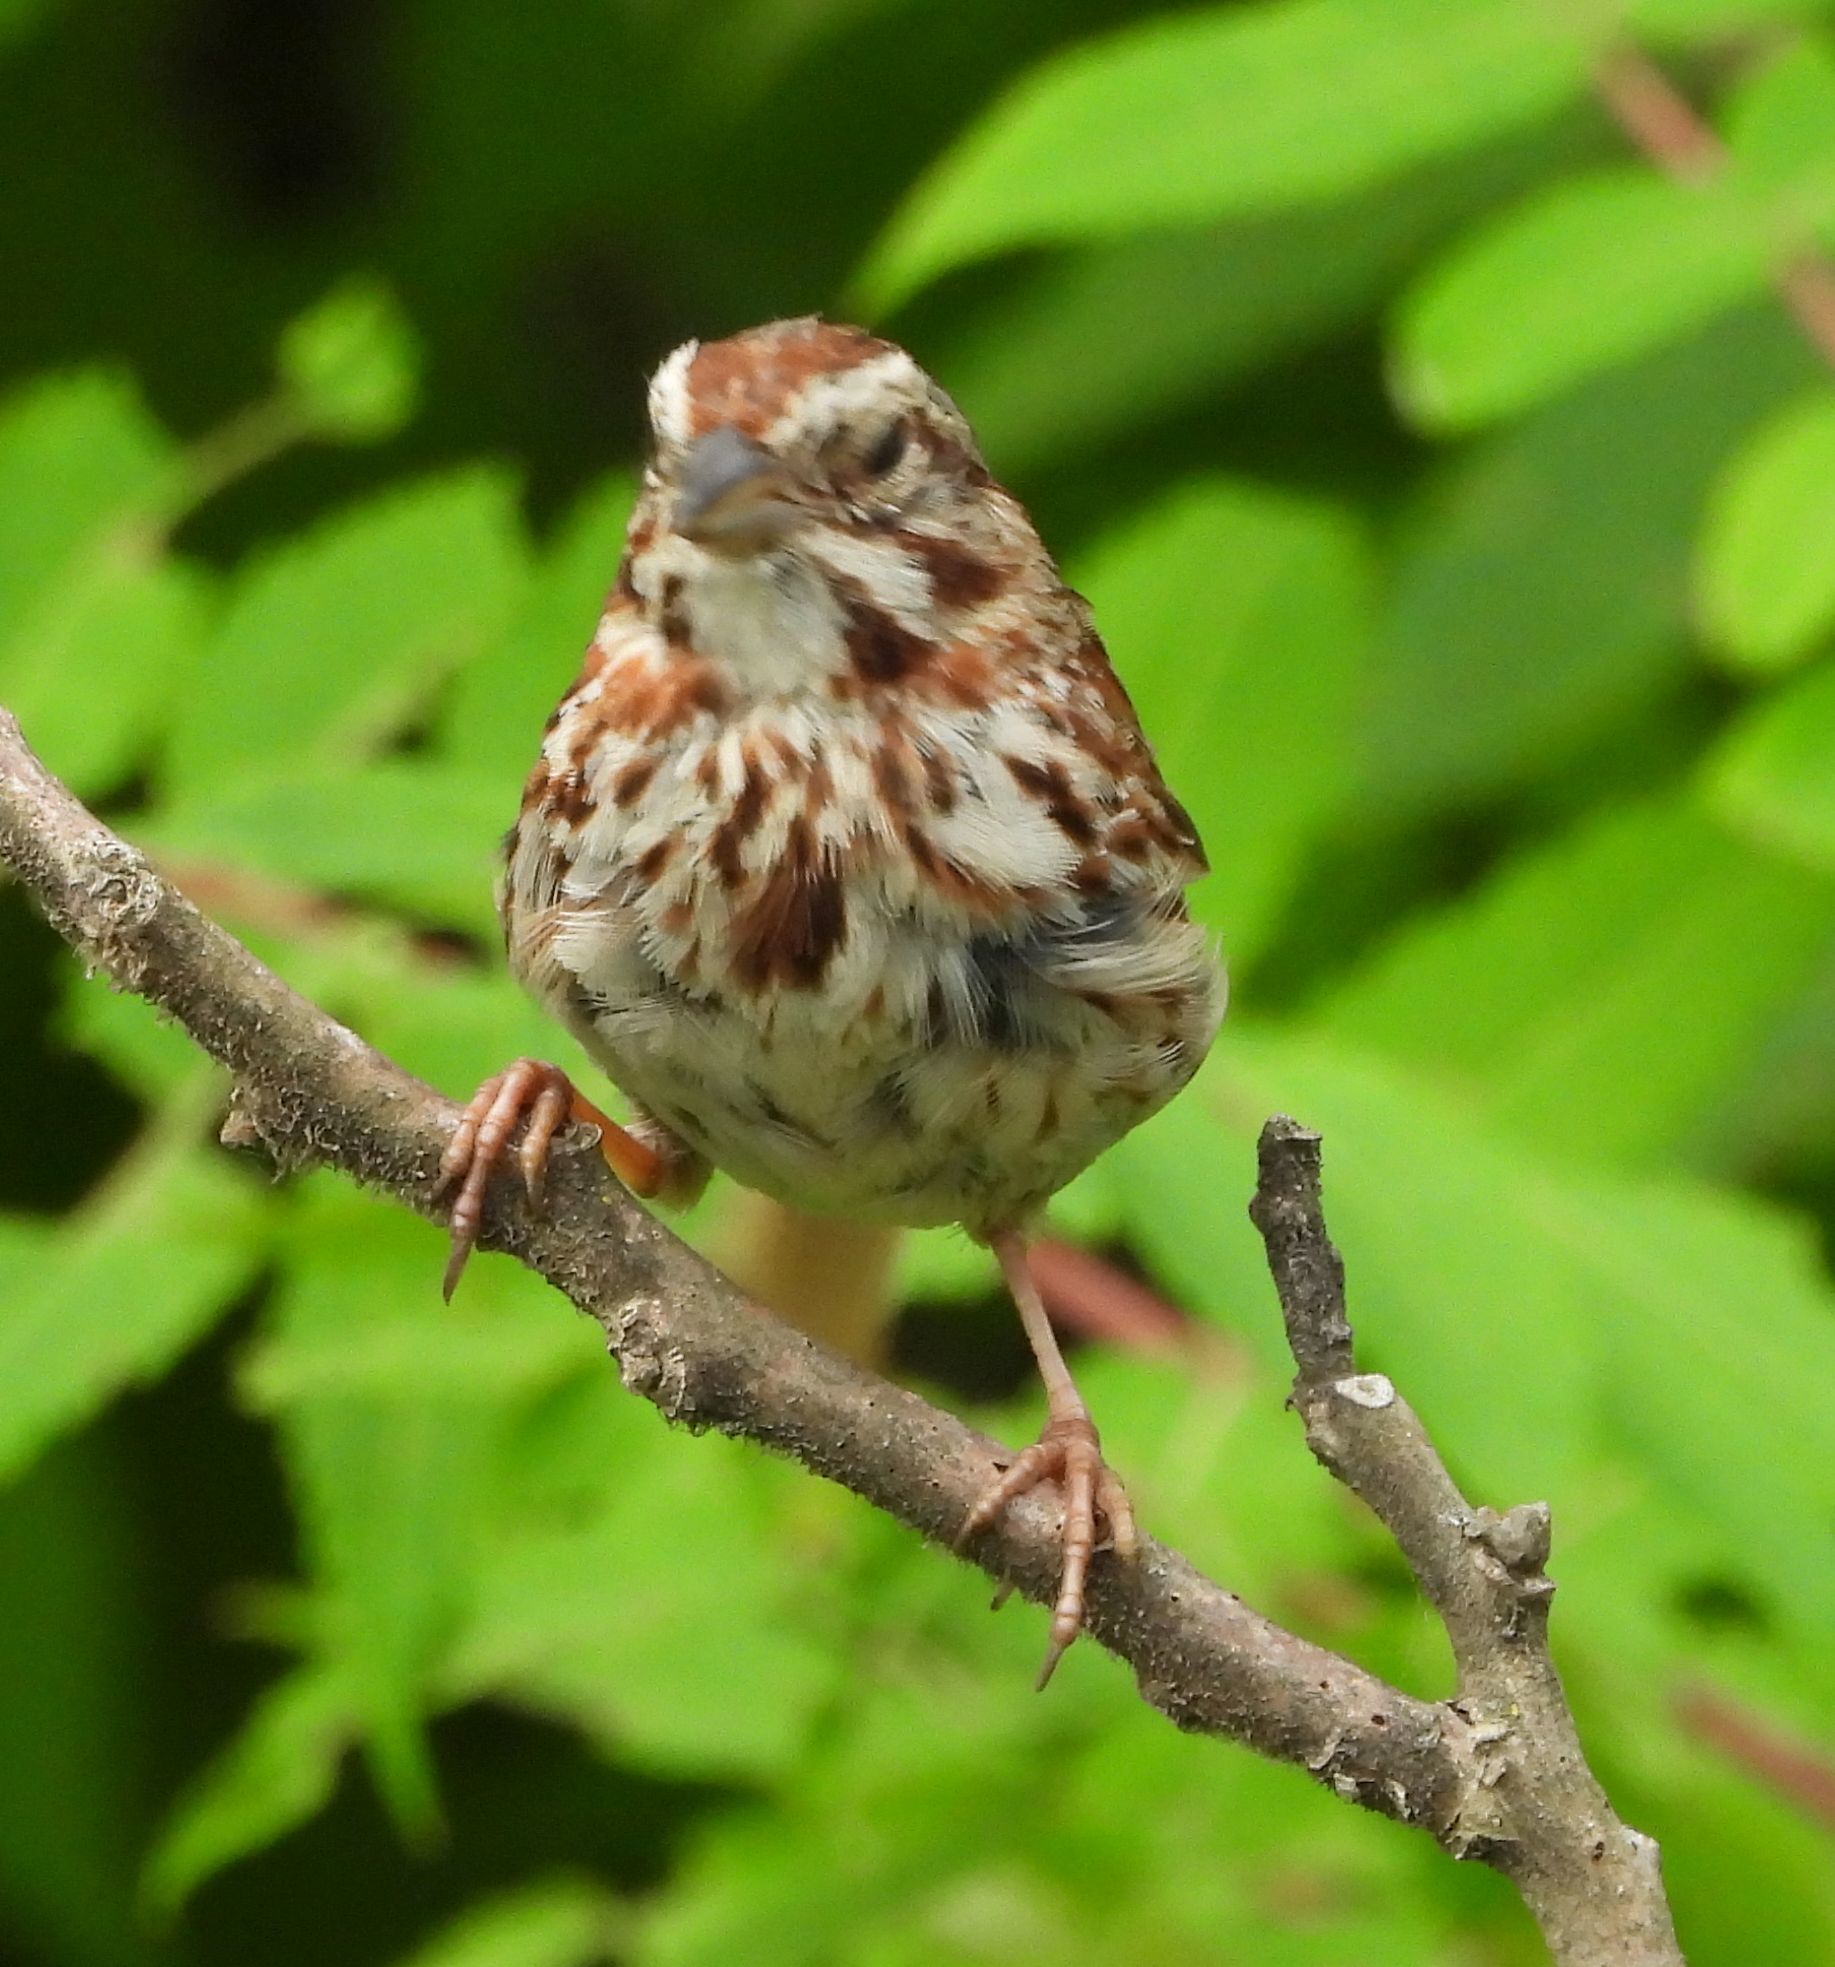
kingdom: Animalia
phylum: Chordata
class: Aves
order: Passeriformes
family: Passerellidae
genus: Melospiza
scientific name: Melospiza melodia
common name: Song sparrow
